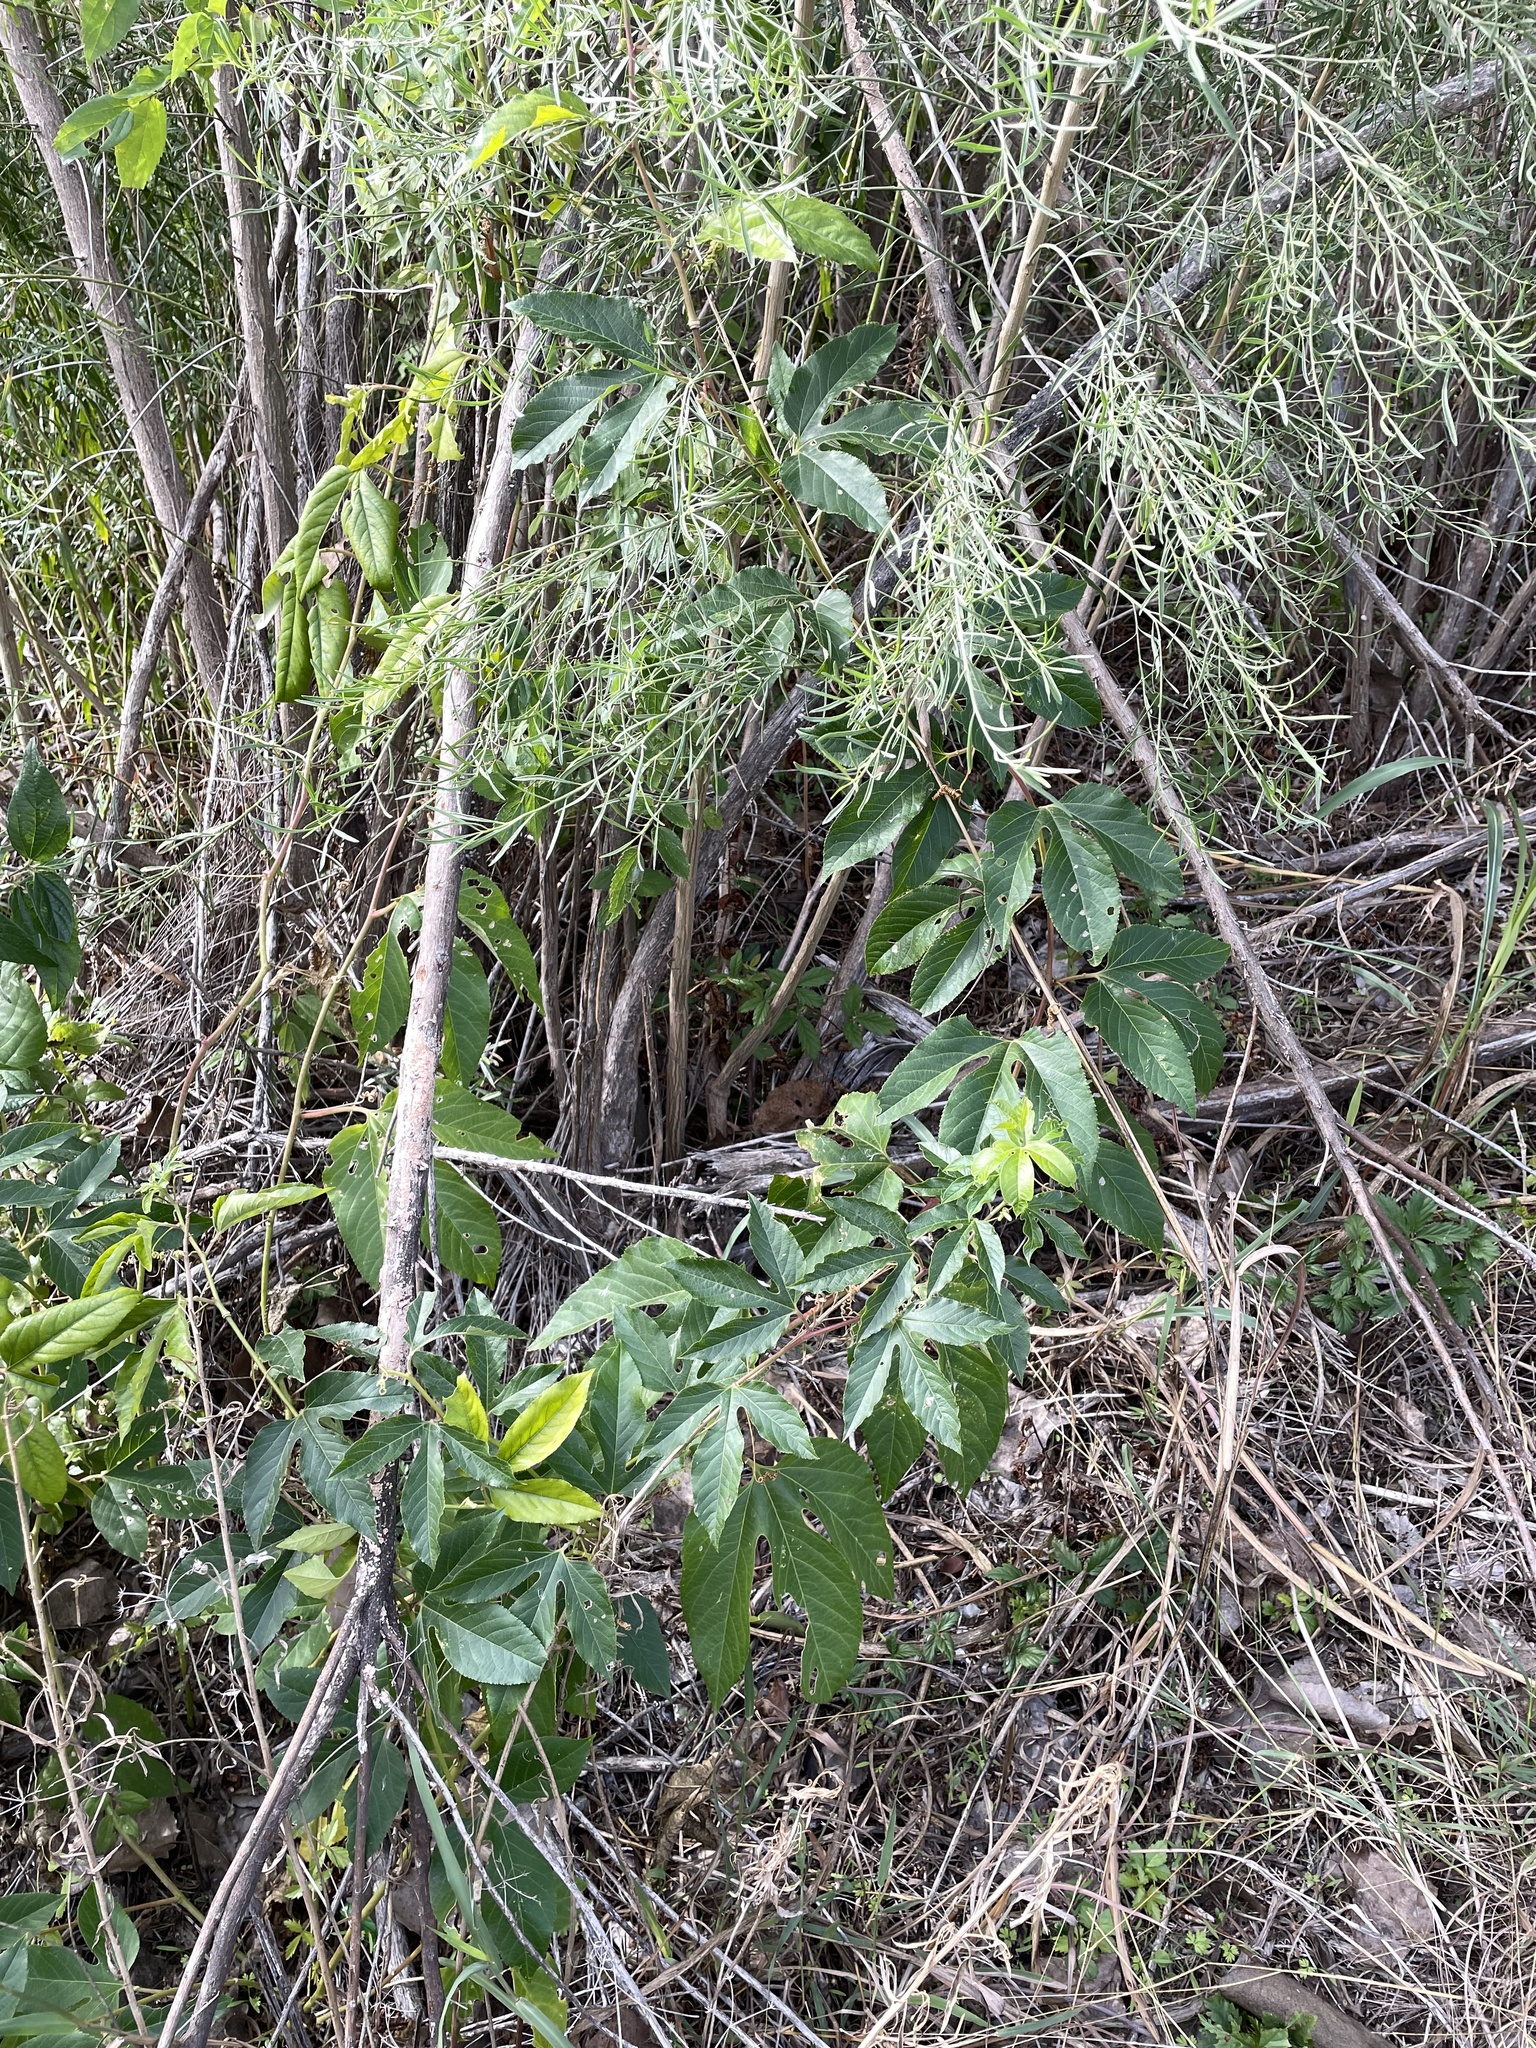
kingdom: Plantae
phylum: Tracheophyta
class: Magnoliopsida
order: Malpighiales
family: Passifloraceae
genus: Passiflora
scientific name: Passiflora incarnata
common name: Apricot-vine
